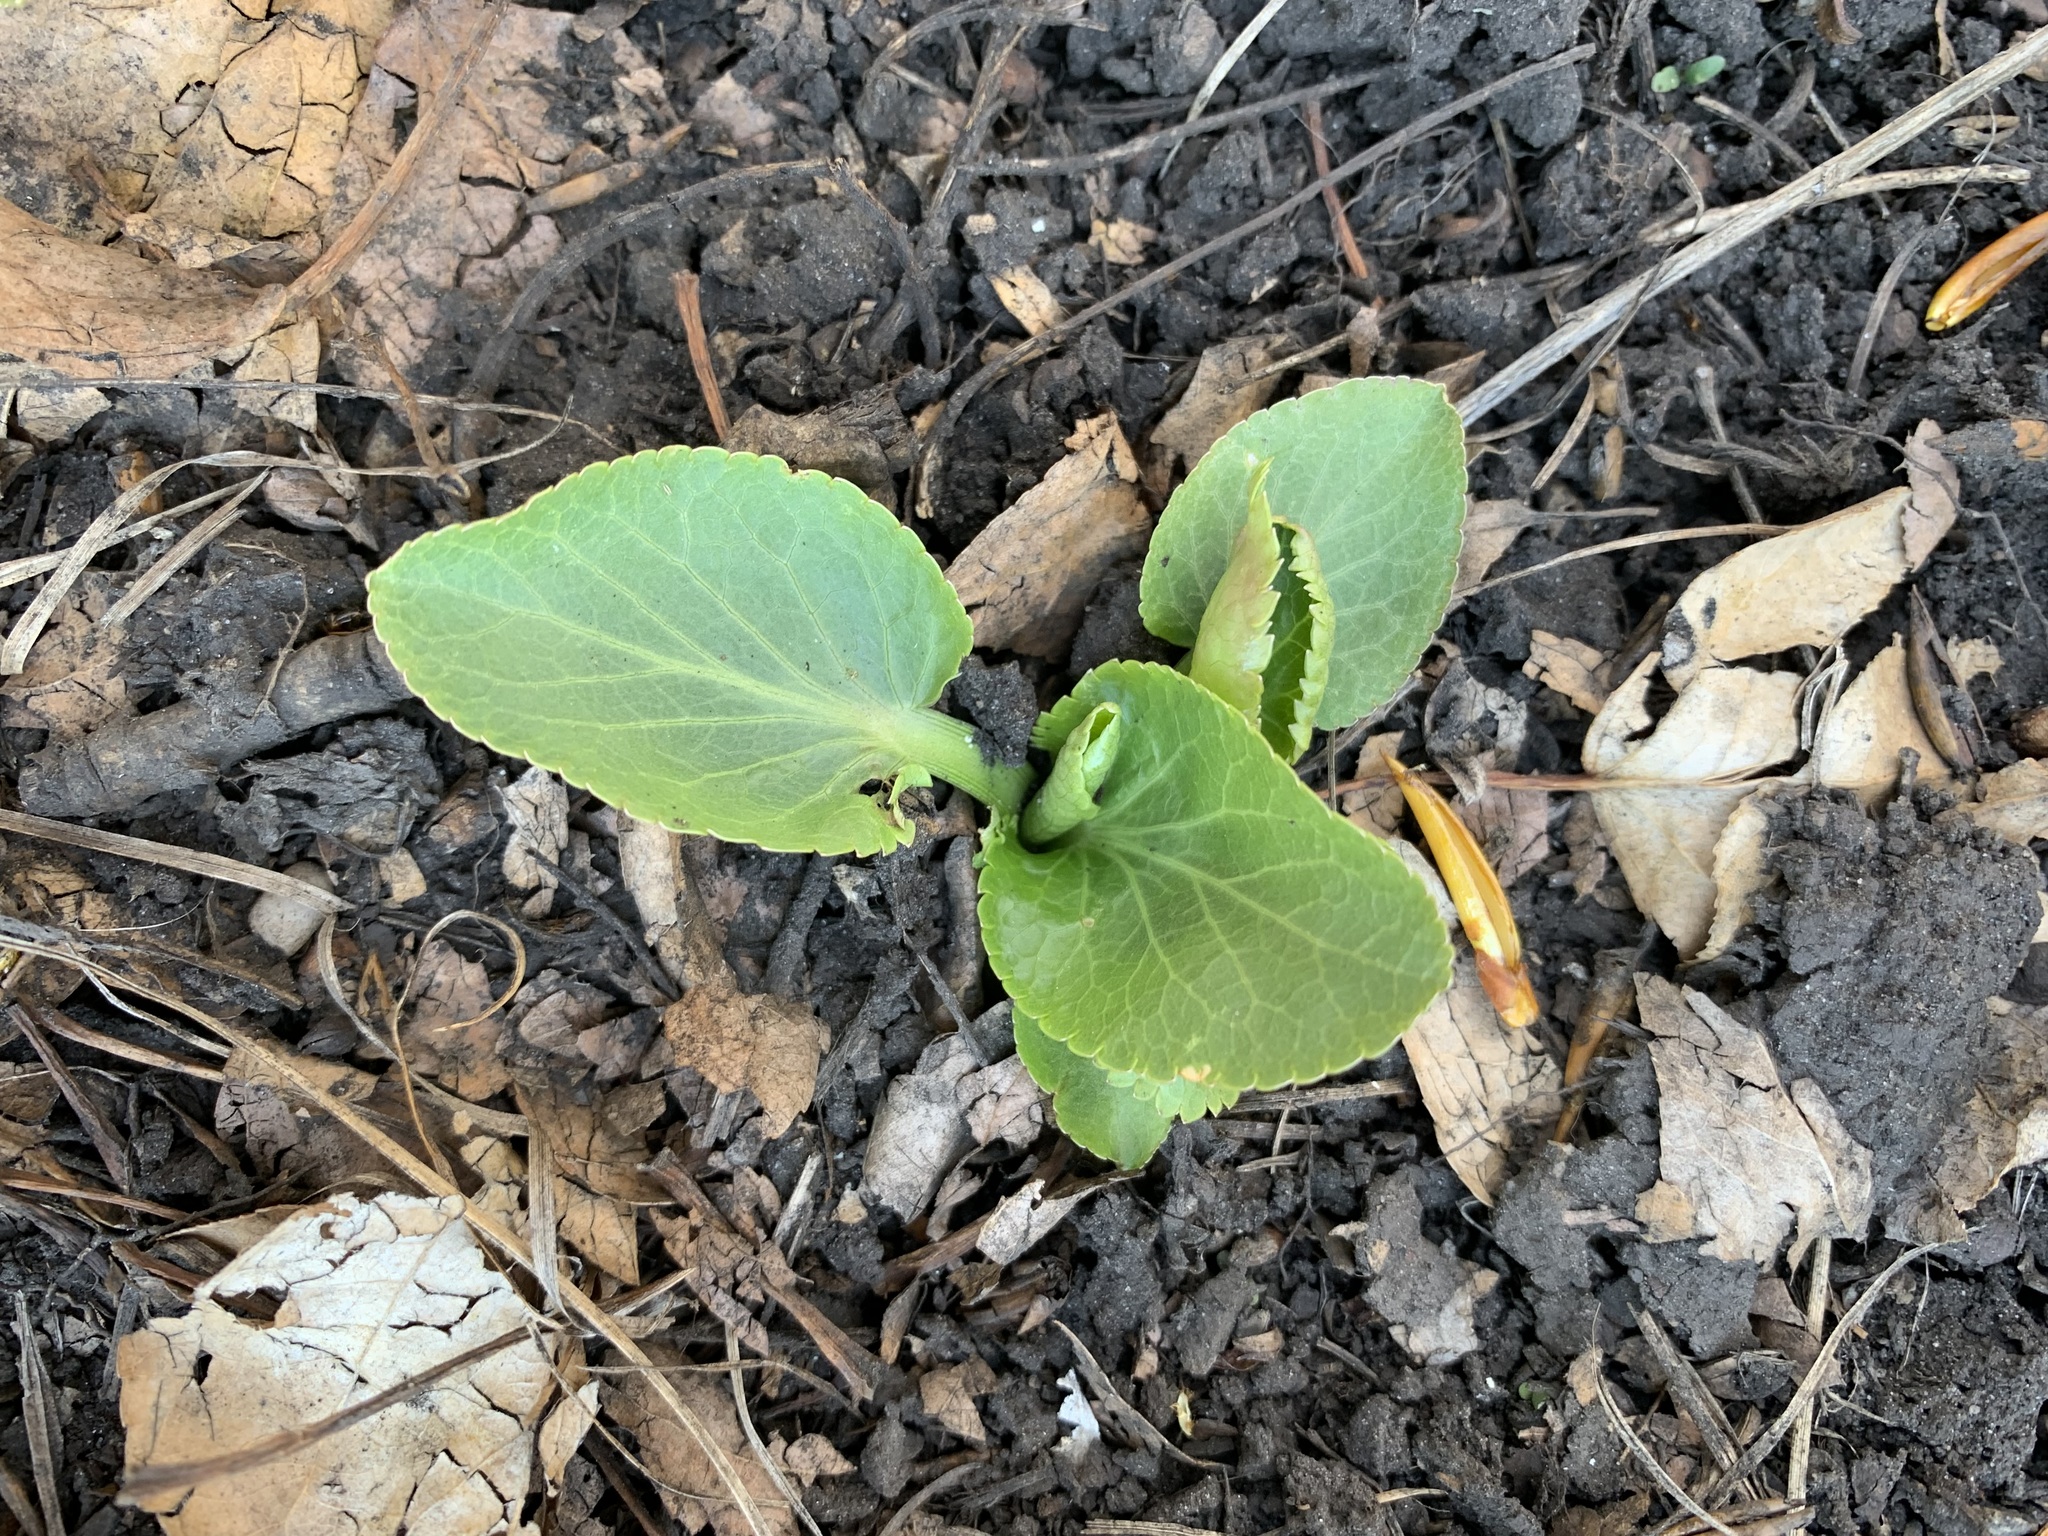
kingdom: Plantae
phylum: Tracheophyta
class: Magnoliopsida
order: Apiales
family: Apiaceae
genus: Eryngium
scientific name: Eryngium planum
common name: Blue eryngo
